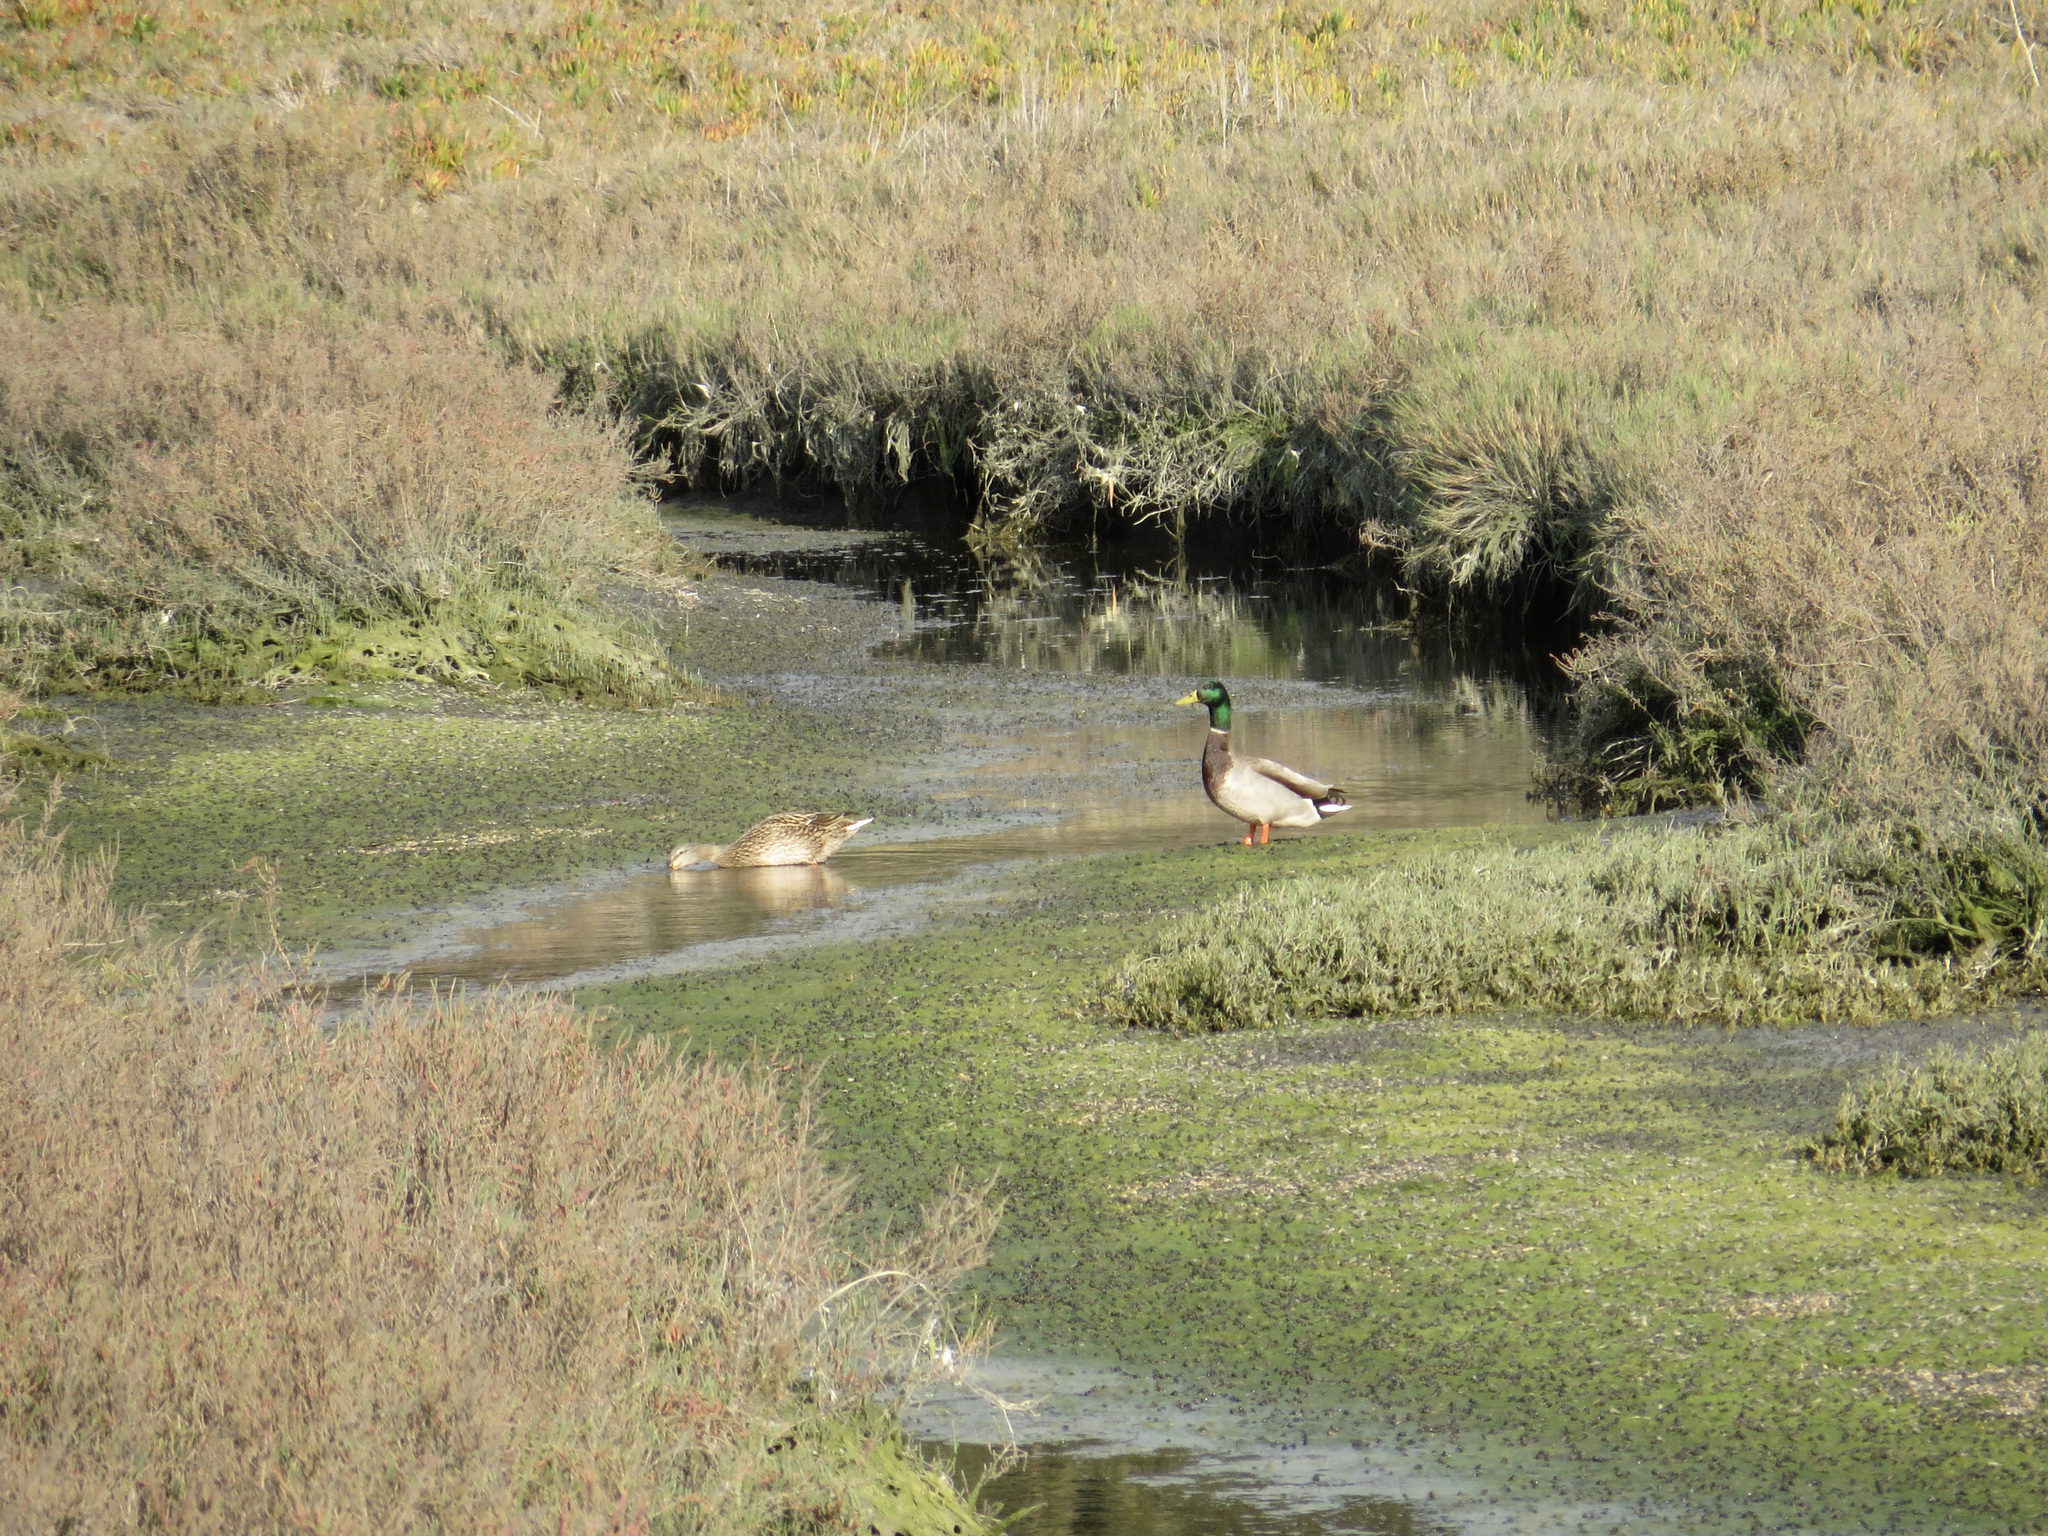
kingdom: Animalia
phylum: Chordata
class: Aves
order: Anseriformes
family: Anatidae
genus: Anas
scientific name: Anas platyrhynchos
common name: Mallard
